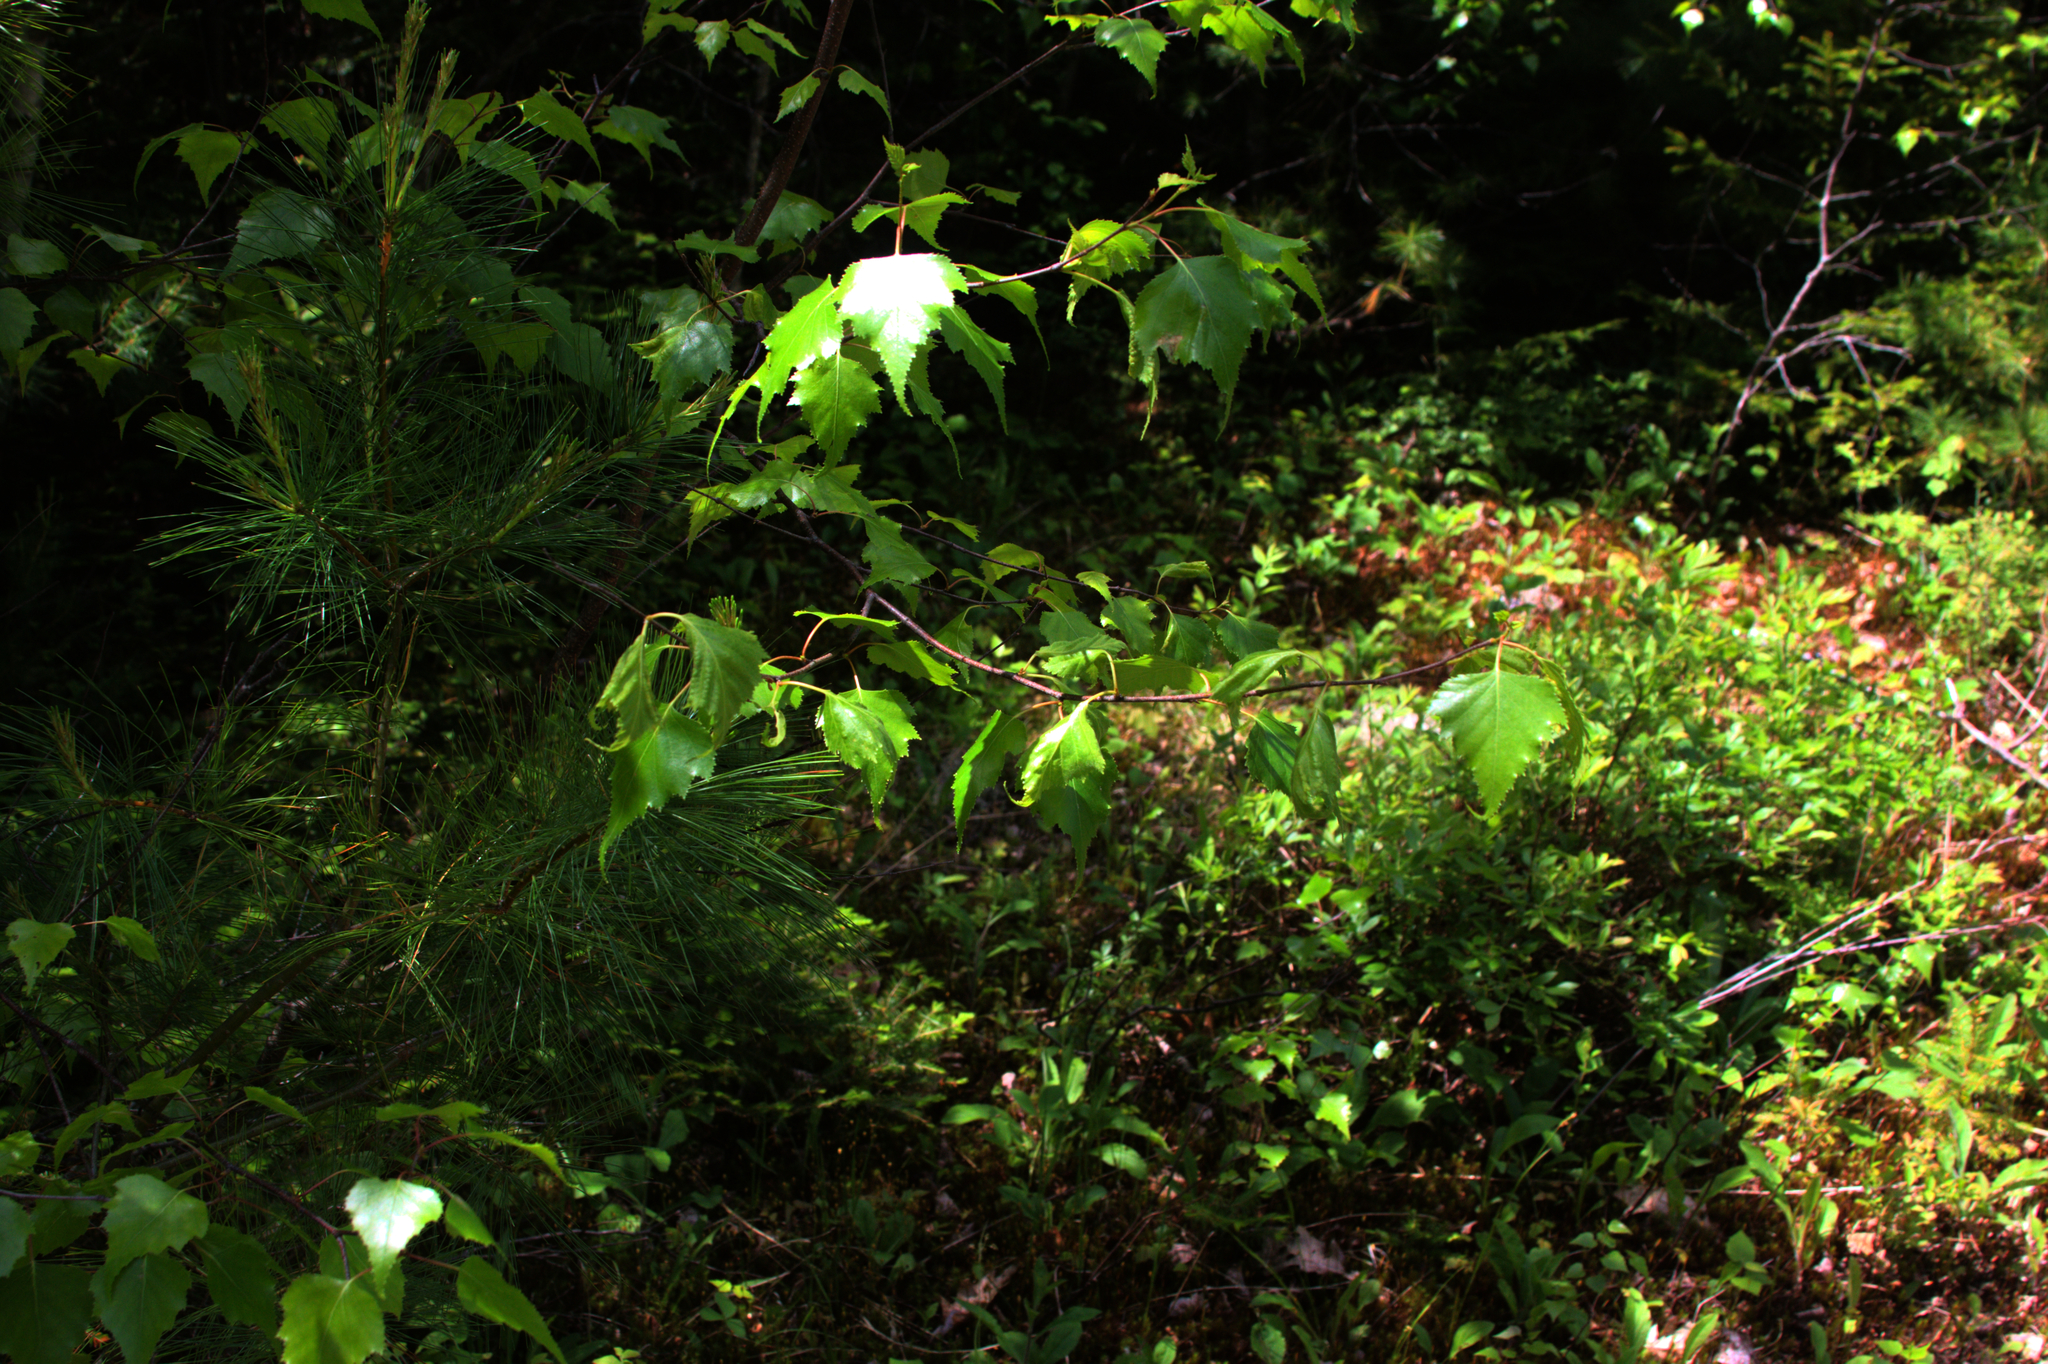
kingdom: Plantae
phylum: Tracheophyta
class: Magnoliopsida
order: Fagales
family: Betulaceae
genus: Betula
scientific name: Betula populifolia
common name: Fire birch
